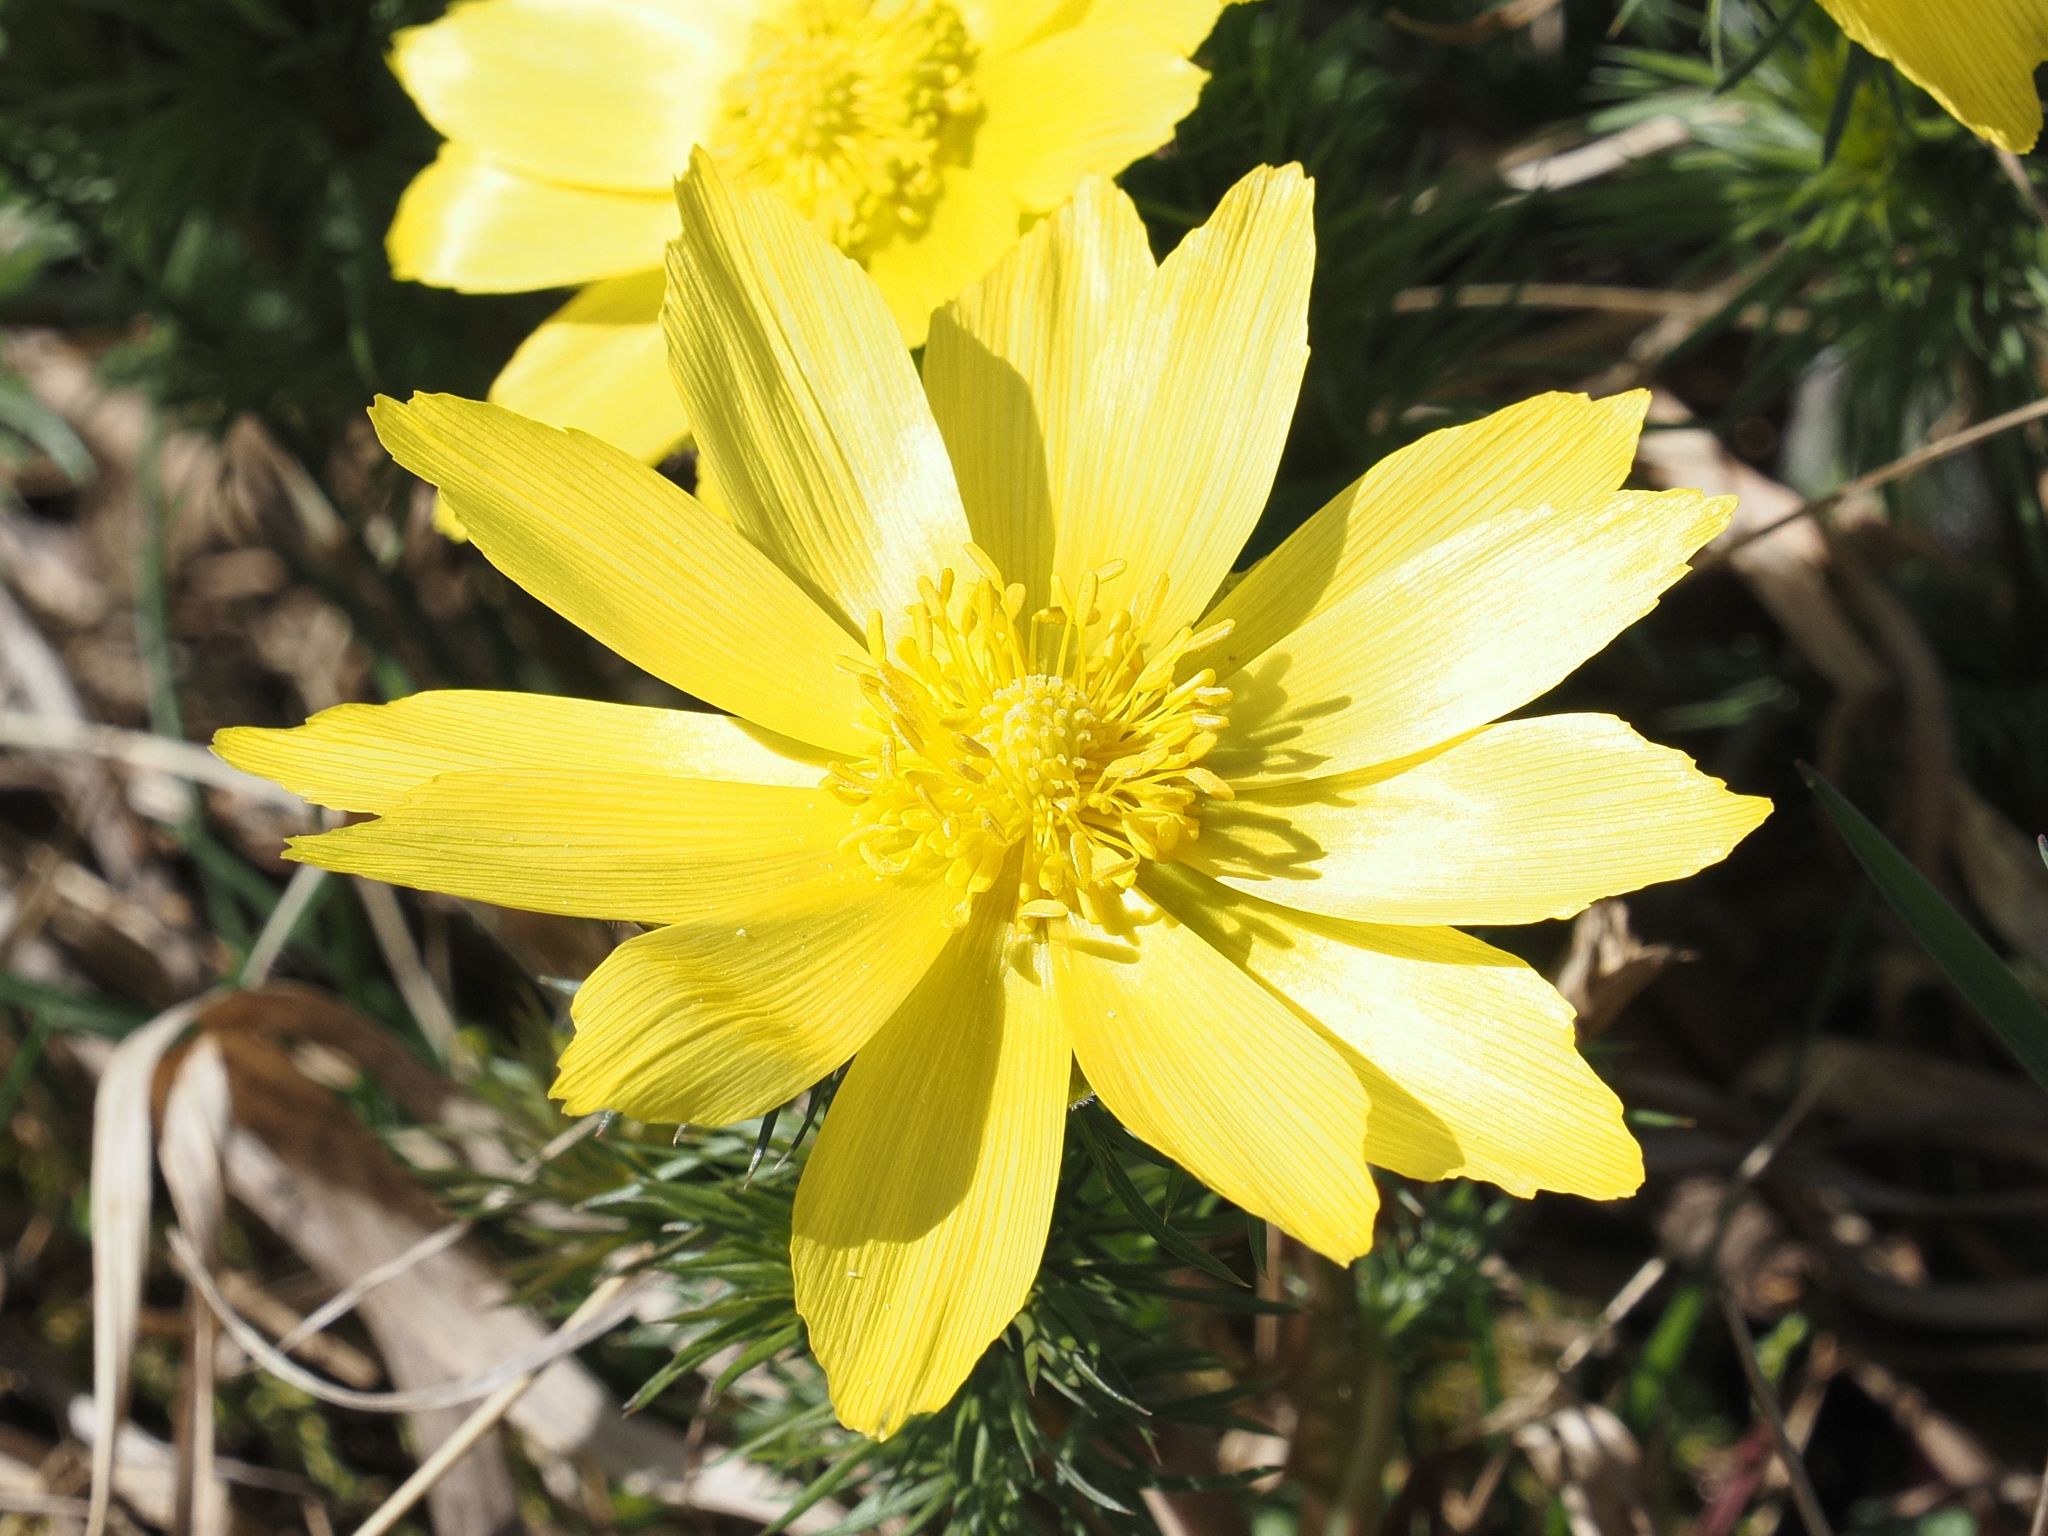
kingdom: Plantae
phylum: Tracheophyta
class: Magnoliopsida
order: Ranunculales
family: Ranunculaceae
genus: Adonis
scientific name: Adonis vernalis
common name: Yellow pheasants-eye
